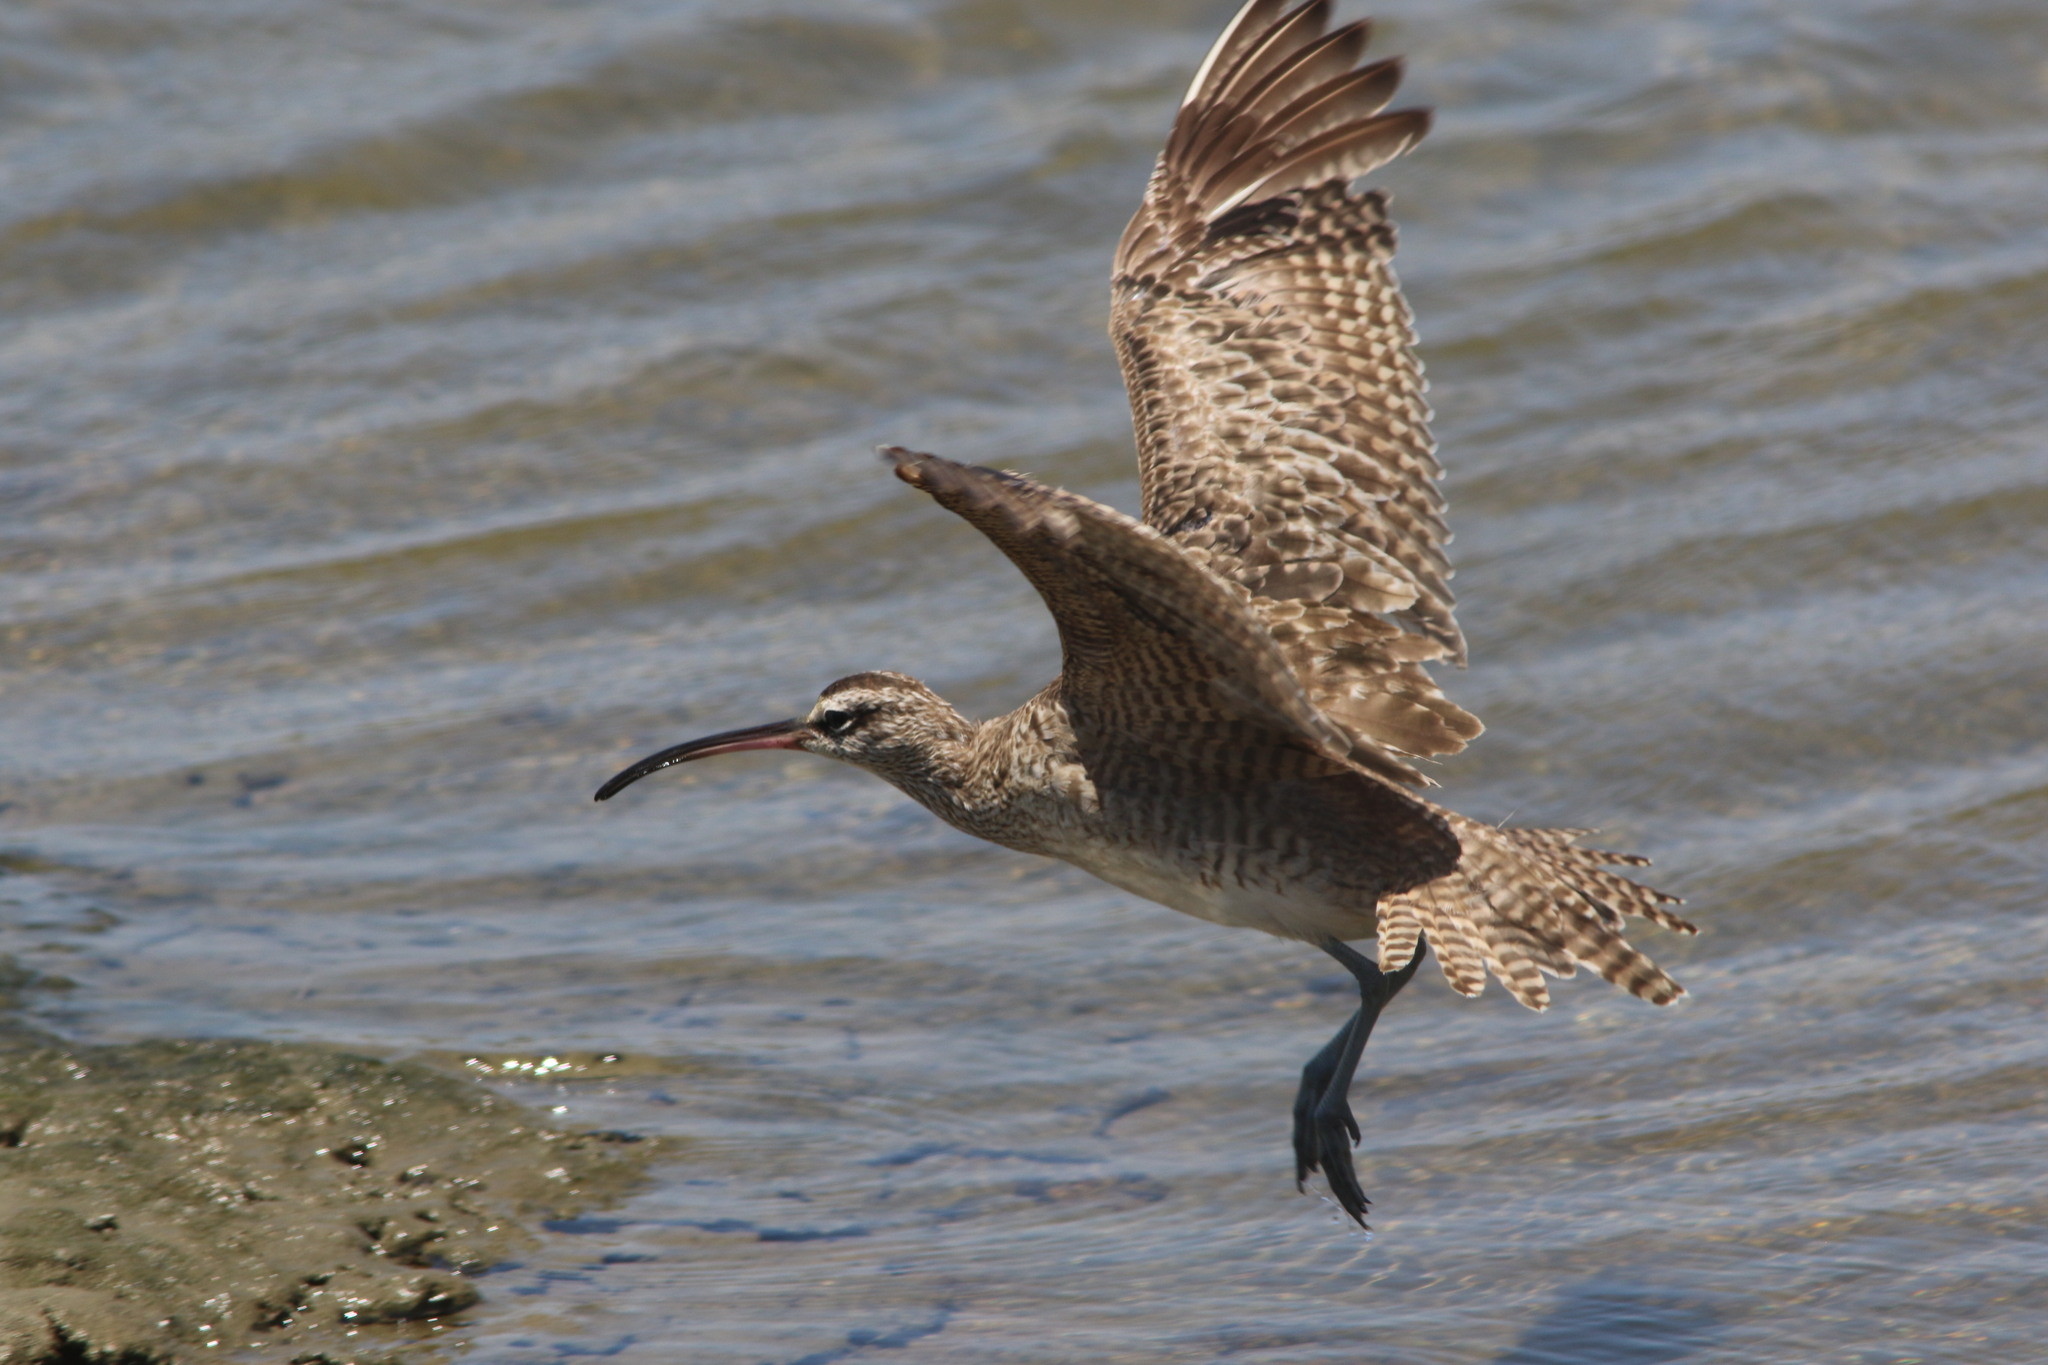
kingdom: Animalia
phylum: Chordata
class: Aves
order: Charadriiformes
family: Scolopacidae
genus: Numenius
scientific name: Numenius phaeopus
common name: Whimbrel
